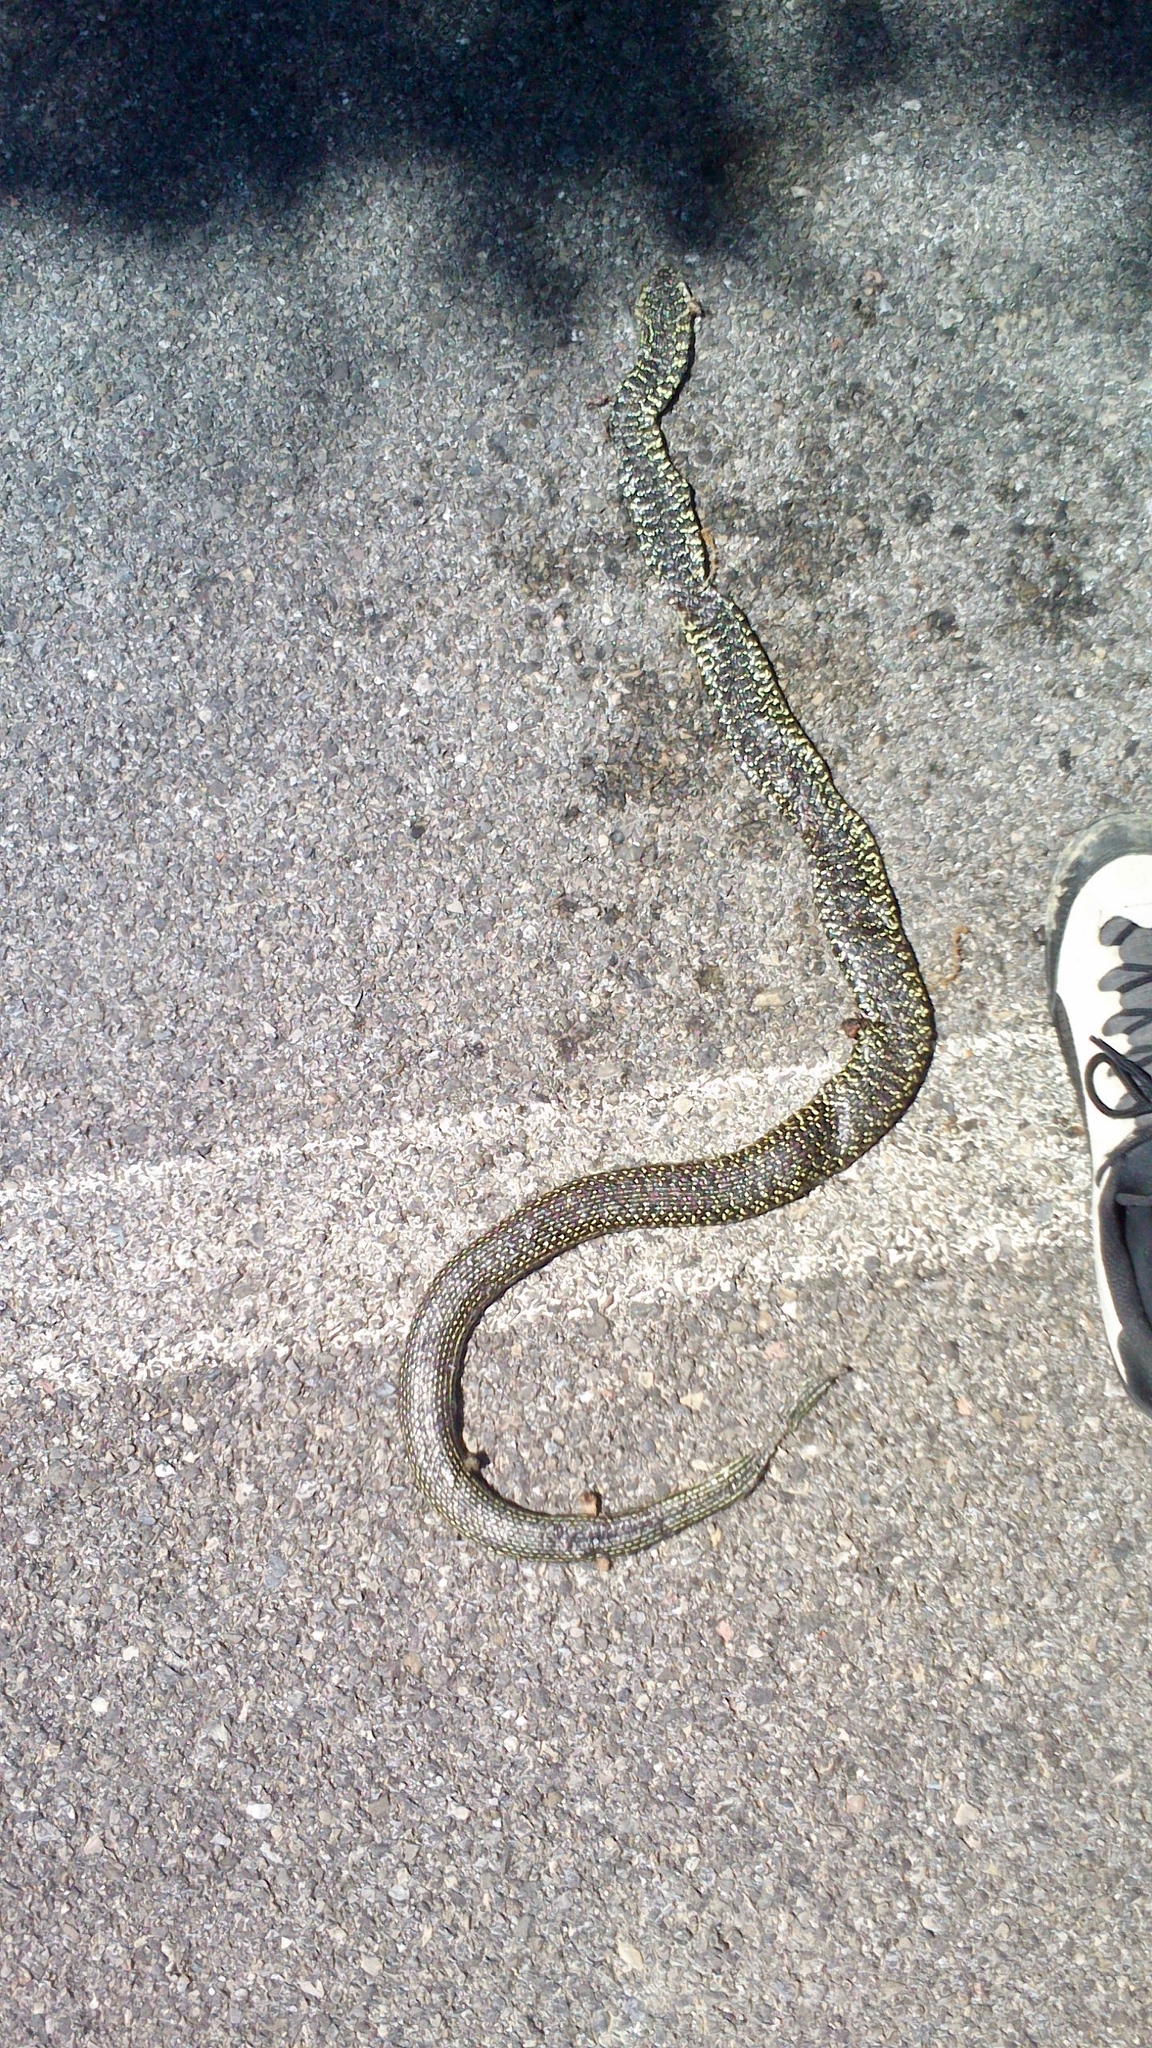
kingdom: Animalia
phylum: Chordata
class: Squamata
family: Colubridae
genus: Hierophis
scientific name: Hierophis viridiflavus
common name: Green whip snake
